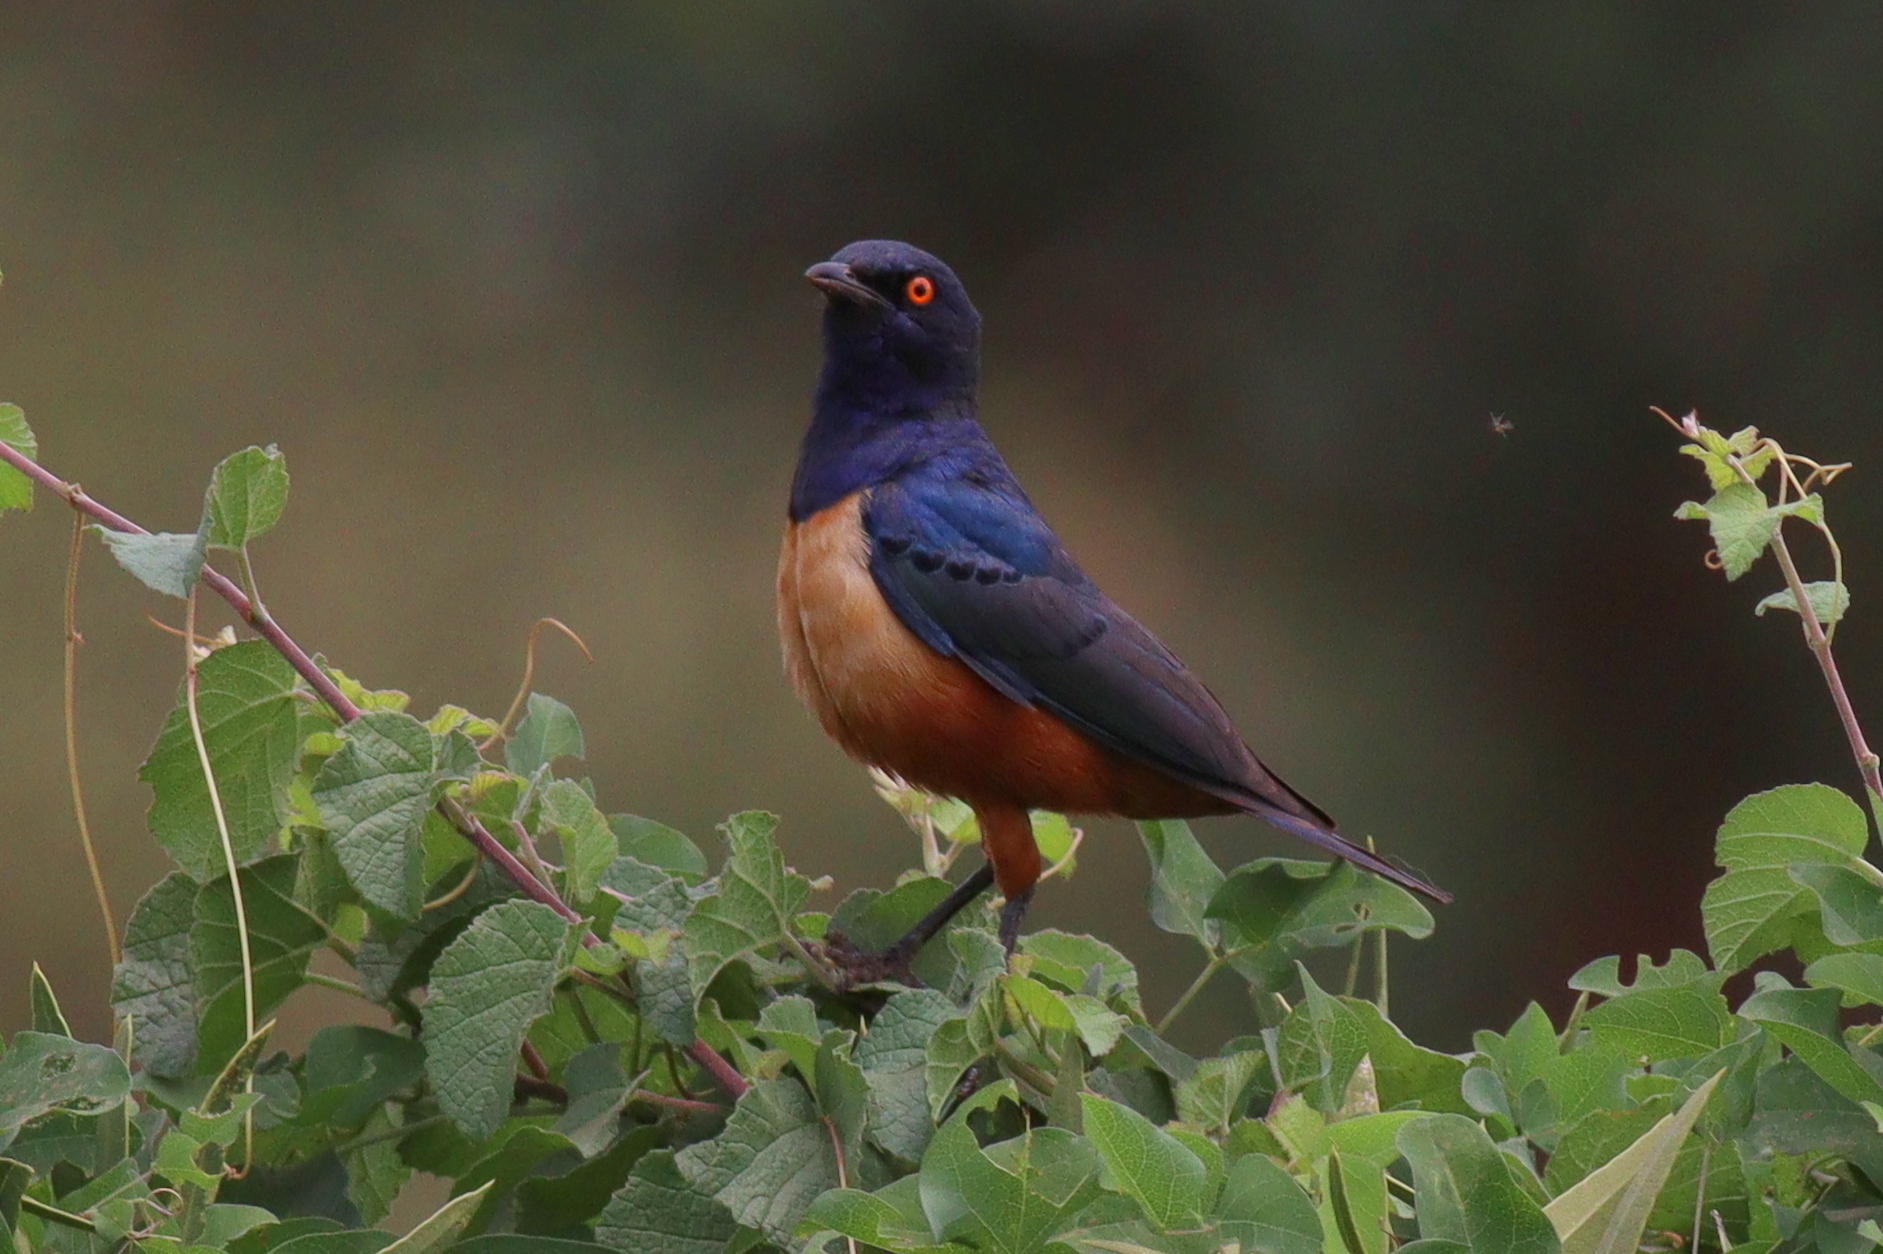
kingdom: Animalia
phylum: Chordata
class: Aves
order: Passeriformes
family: Sturnidae
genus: Lamprotornis
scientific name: Lamprotornis hildebrandti
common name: Hildebrandt's starling
